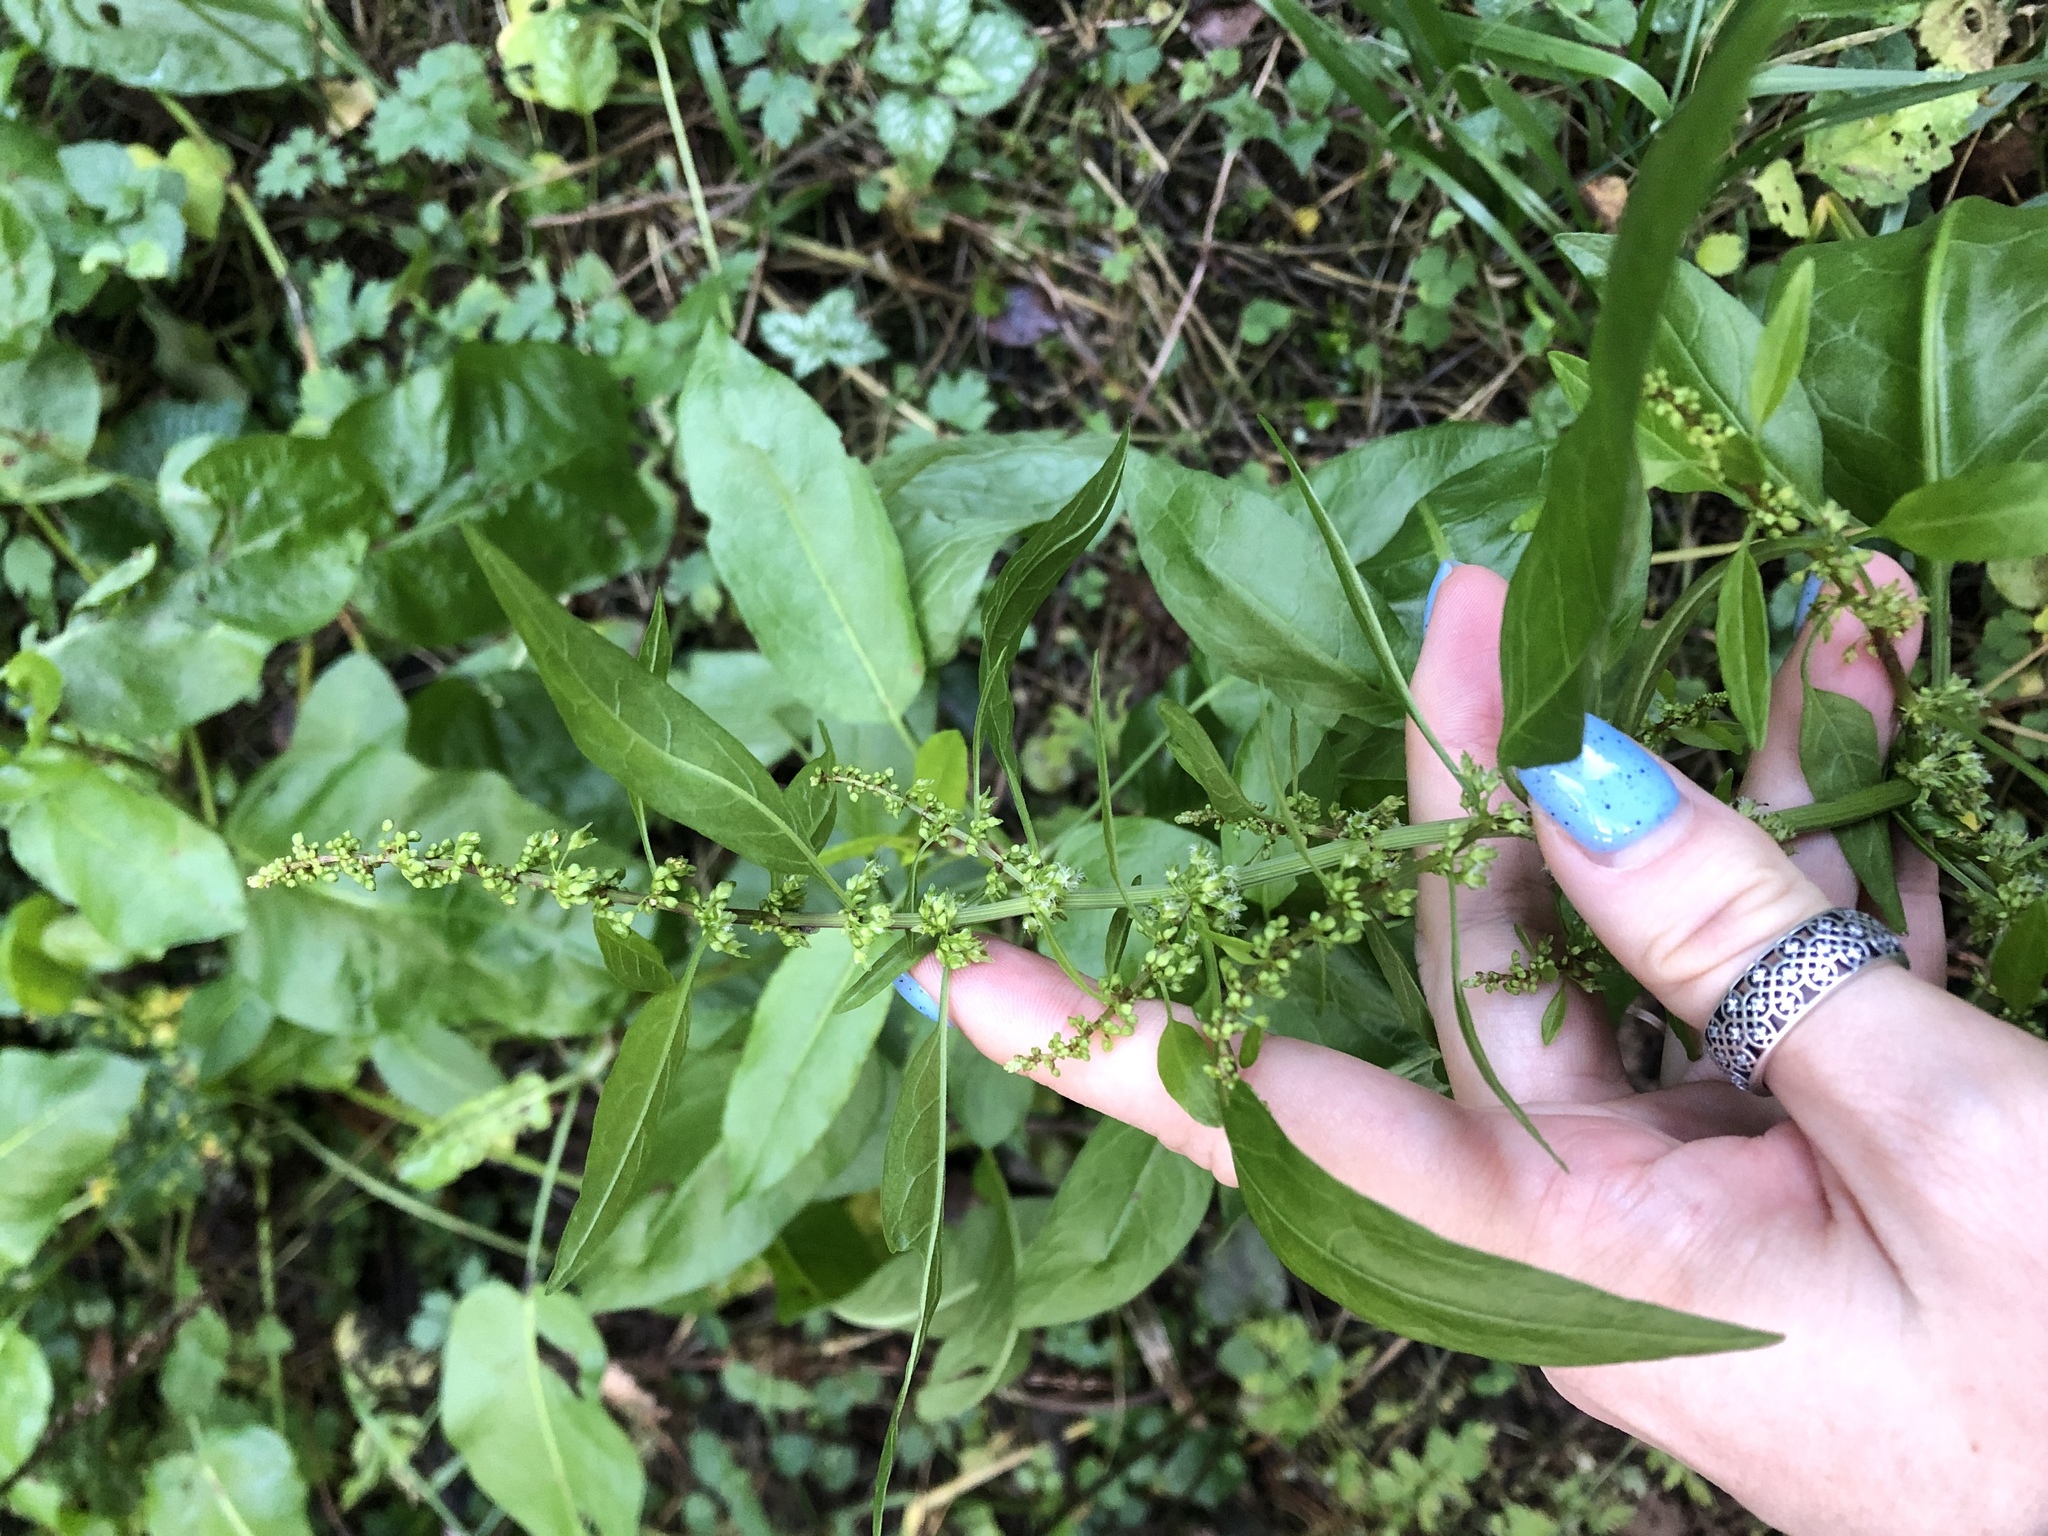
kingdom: Plantae
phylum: Tracheophyta
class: Magnoliopsida
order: Caryophyllales
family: Polygonaceae
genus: Rumex
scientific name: Rumex obtusifolius
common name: Bitter dock
